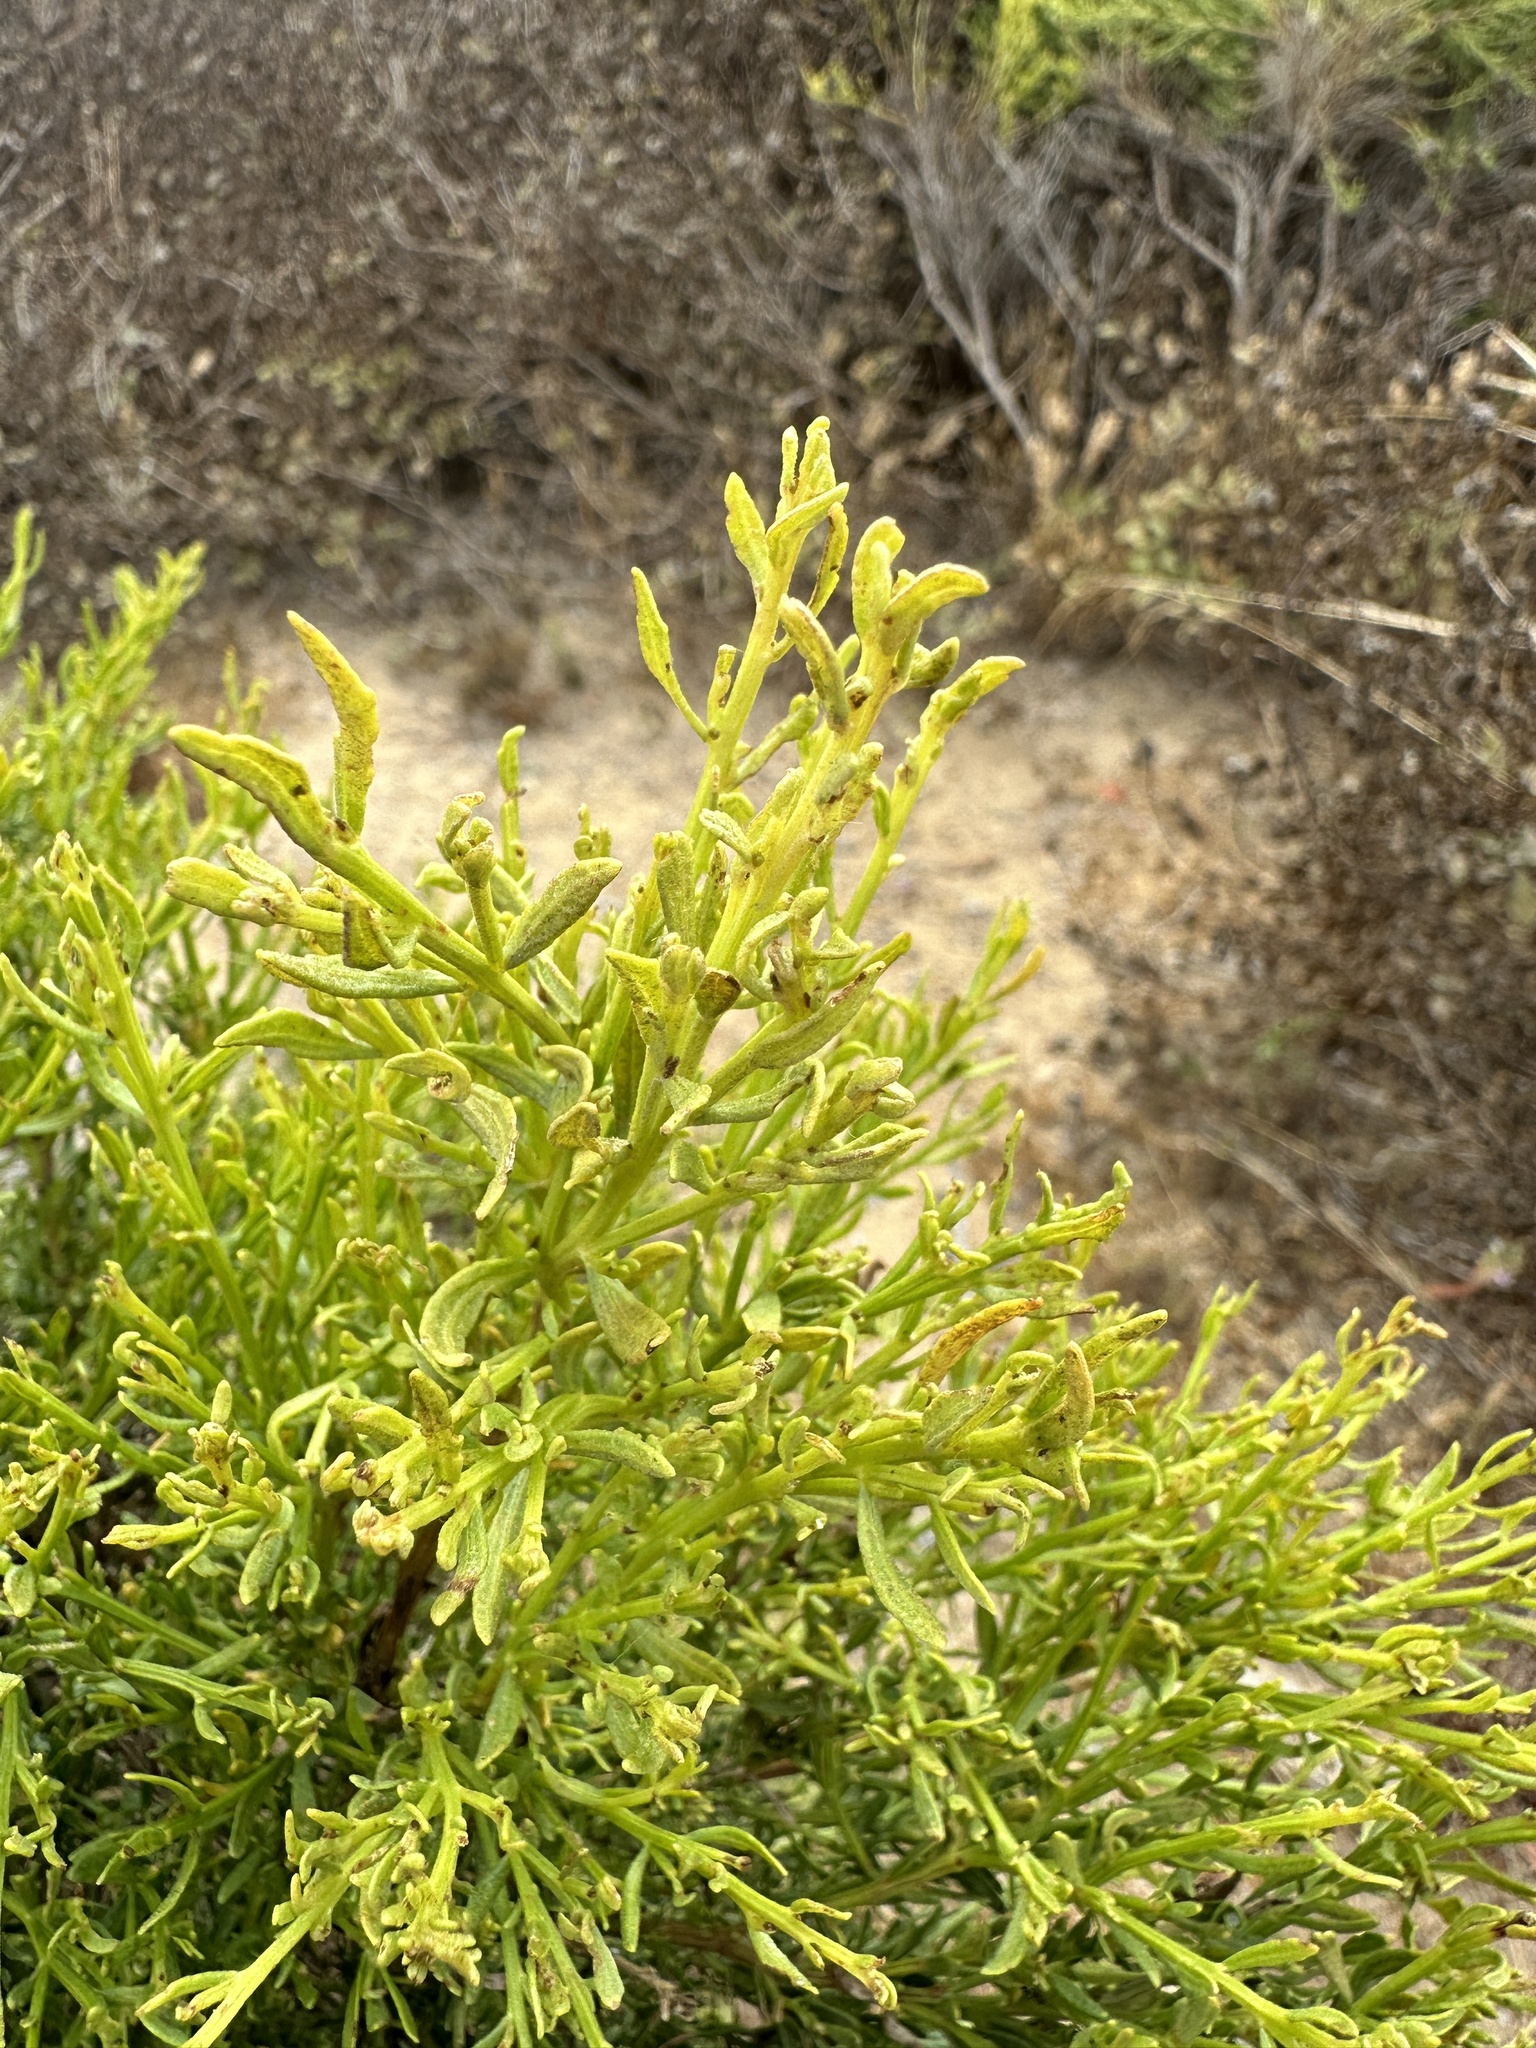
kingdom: Plantae
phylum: Tracheophyta
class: Magnoliopsida
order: Asterales
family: Asteraceae
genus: Baccharis
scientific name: Baccharis sarothroides
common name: Desert-broom
